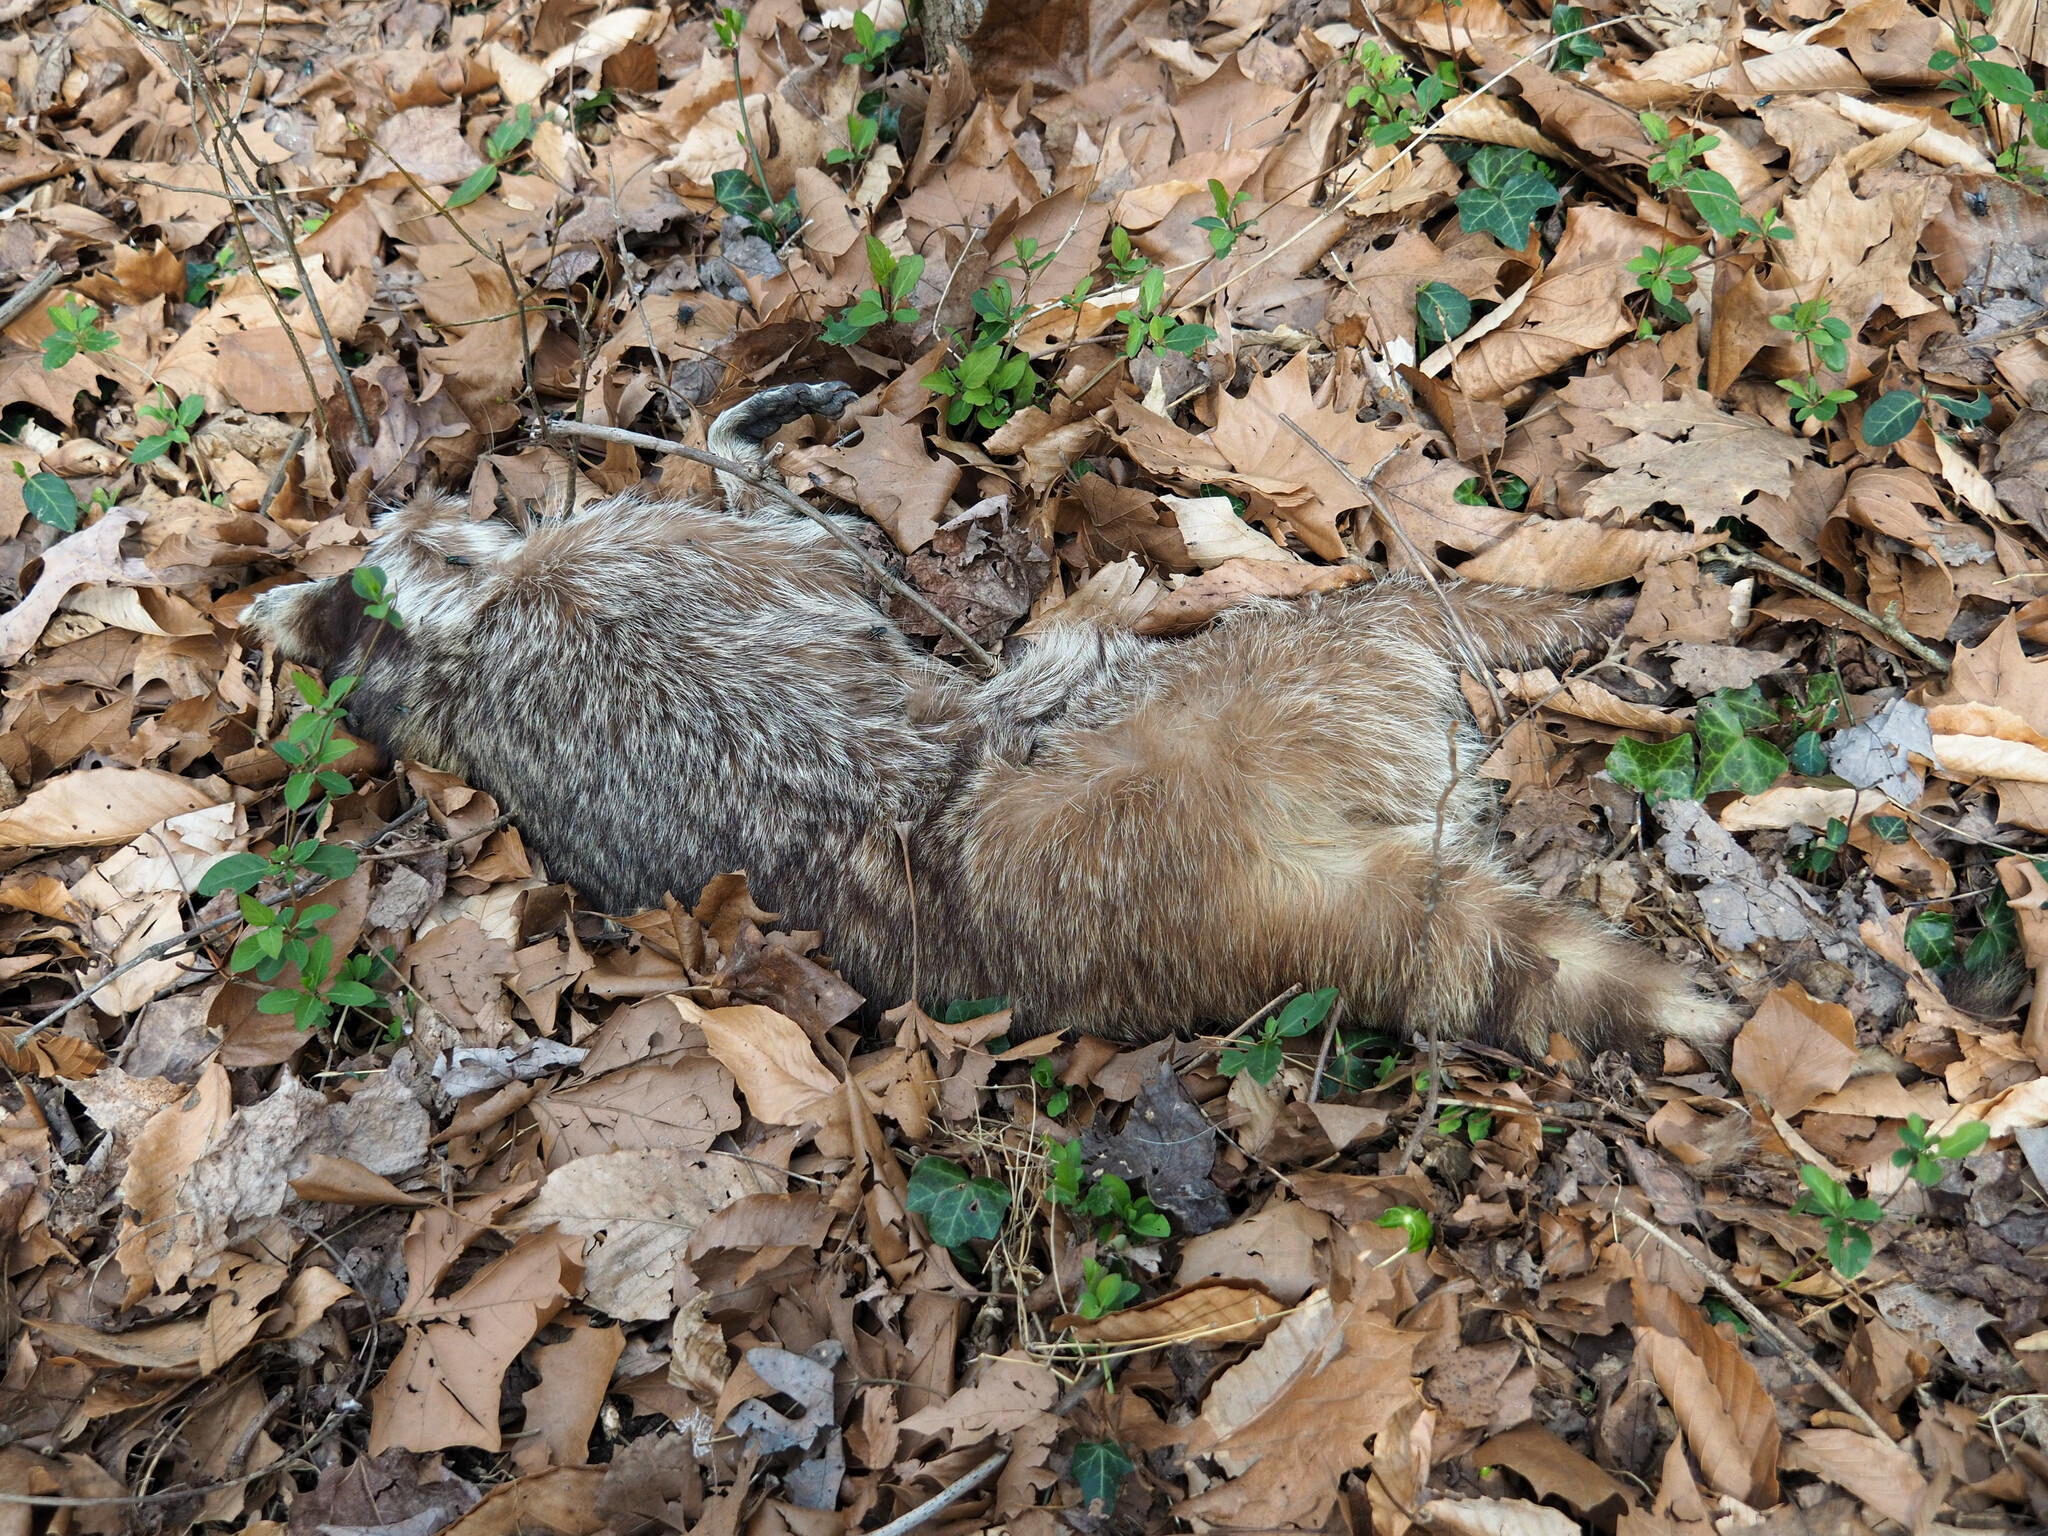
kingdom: Animalia
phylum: Chordata
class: Mammalia
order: Carnivora
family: Procyonidae
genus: Procyon
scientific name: Procyon lotor
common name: Raccoon
